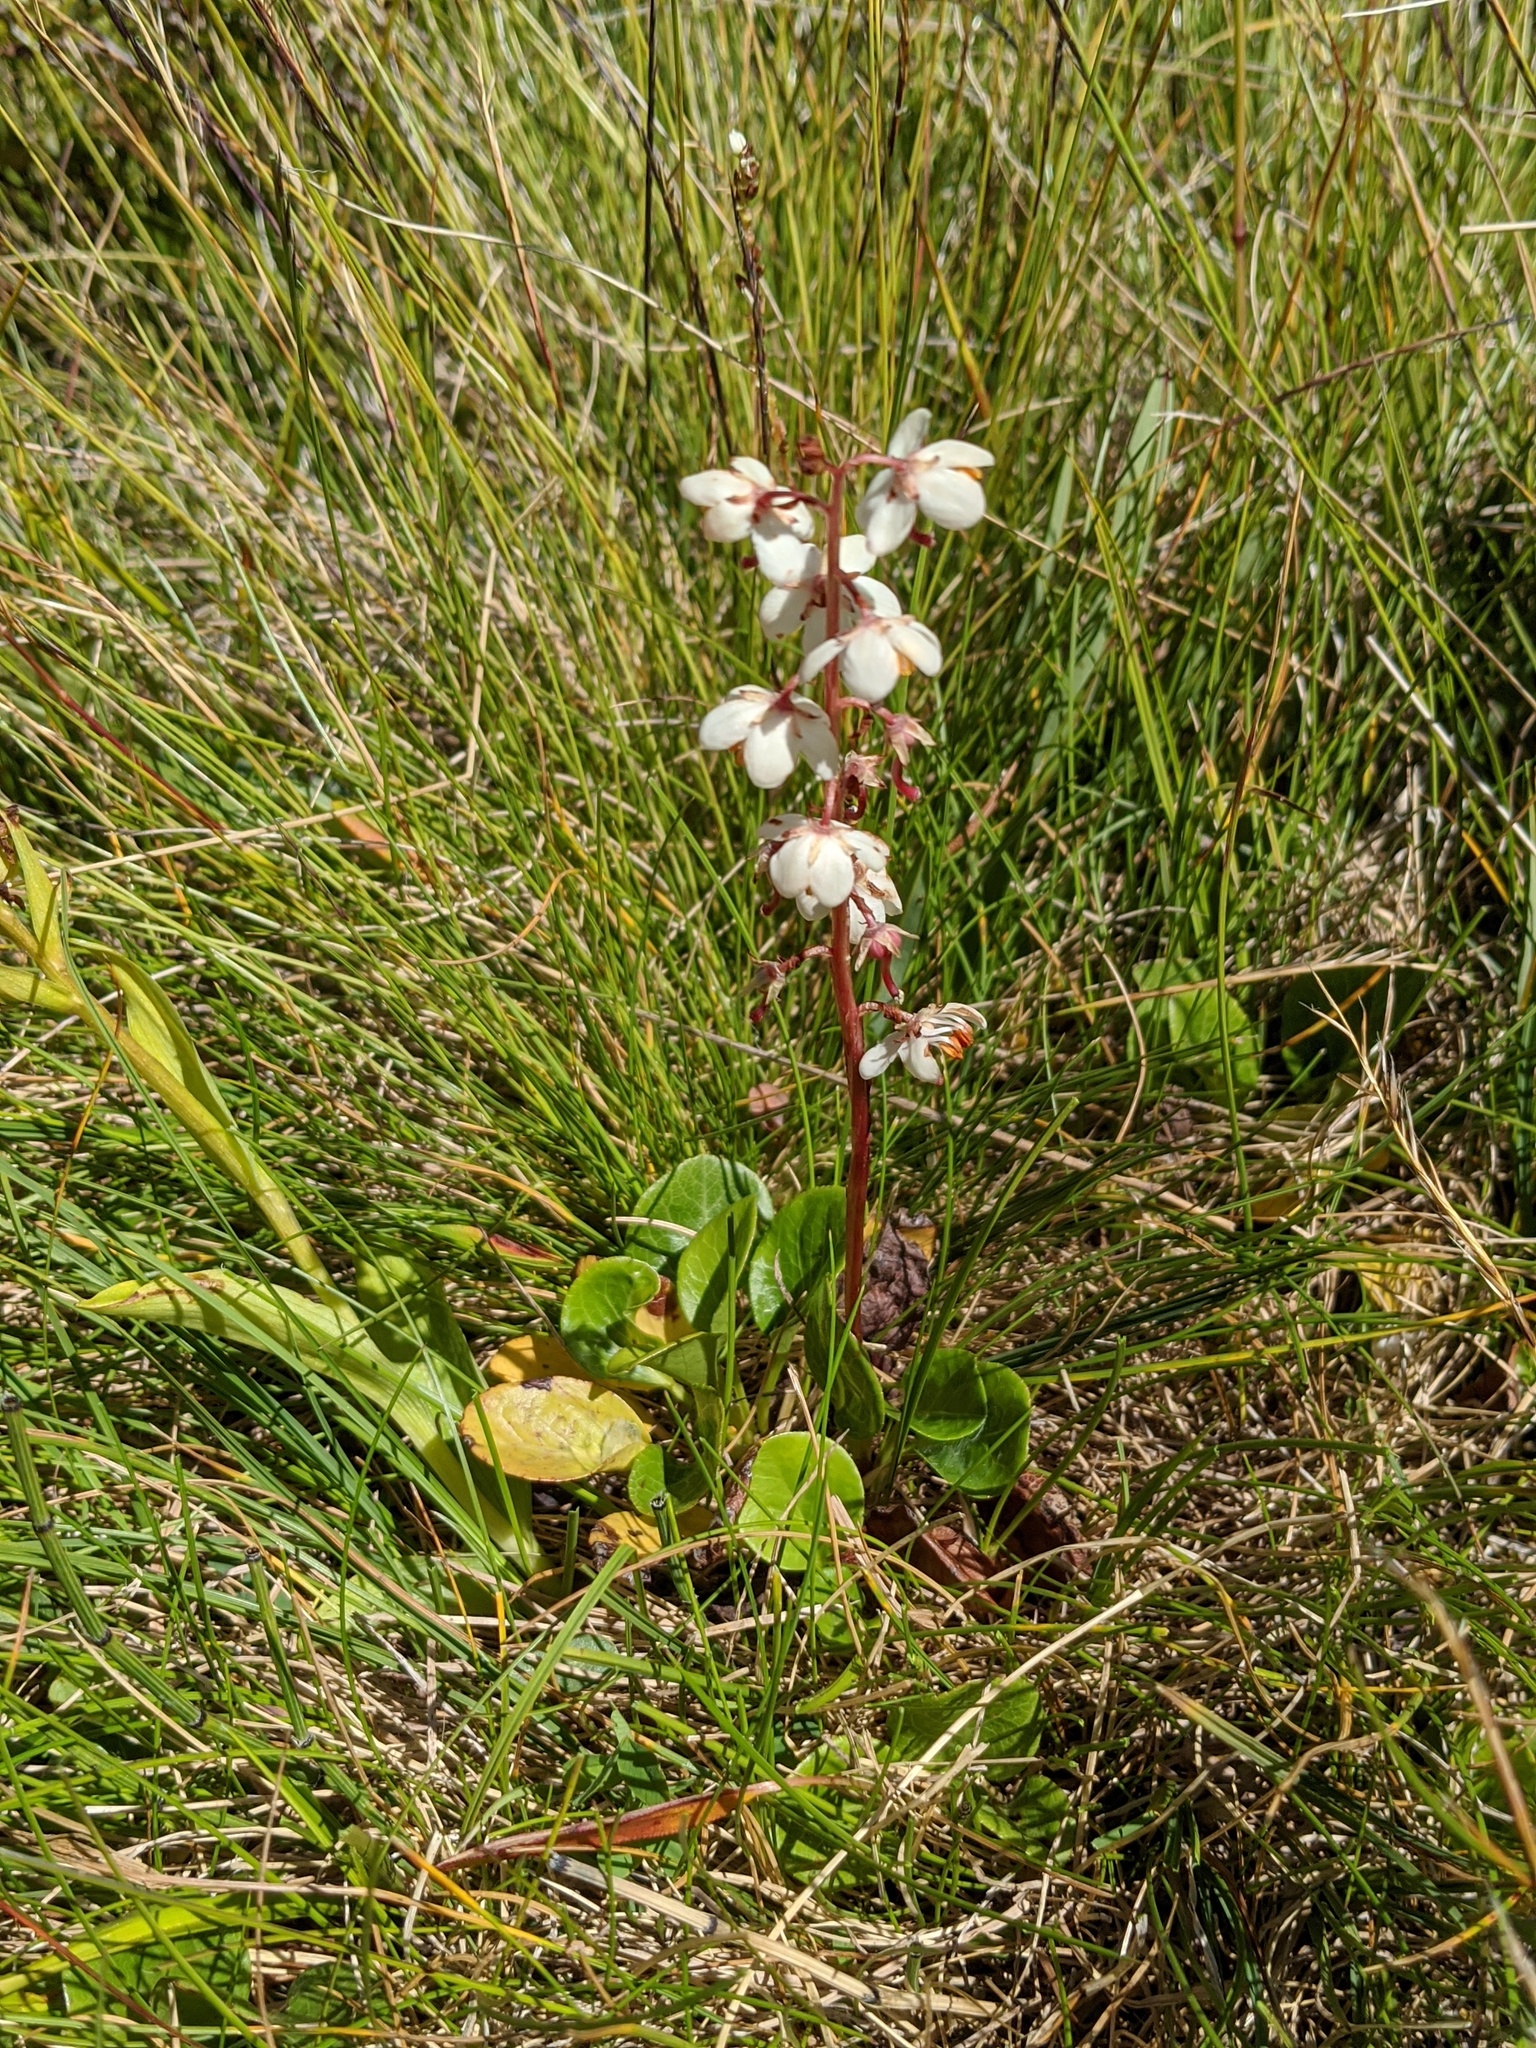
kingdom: Plantae
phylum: Tracheophyta
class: Magnoliopsida
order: Ericales
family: Ericaceae
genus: Pyrola
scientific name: Pyrola rotundifolia
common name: Round-leaved wintergreen
